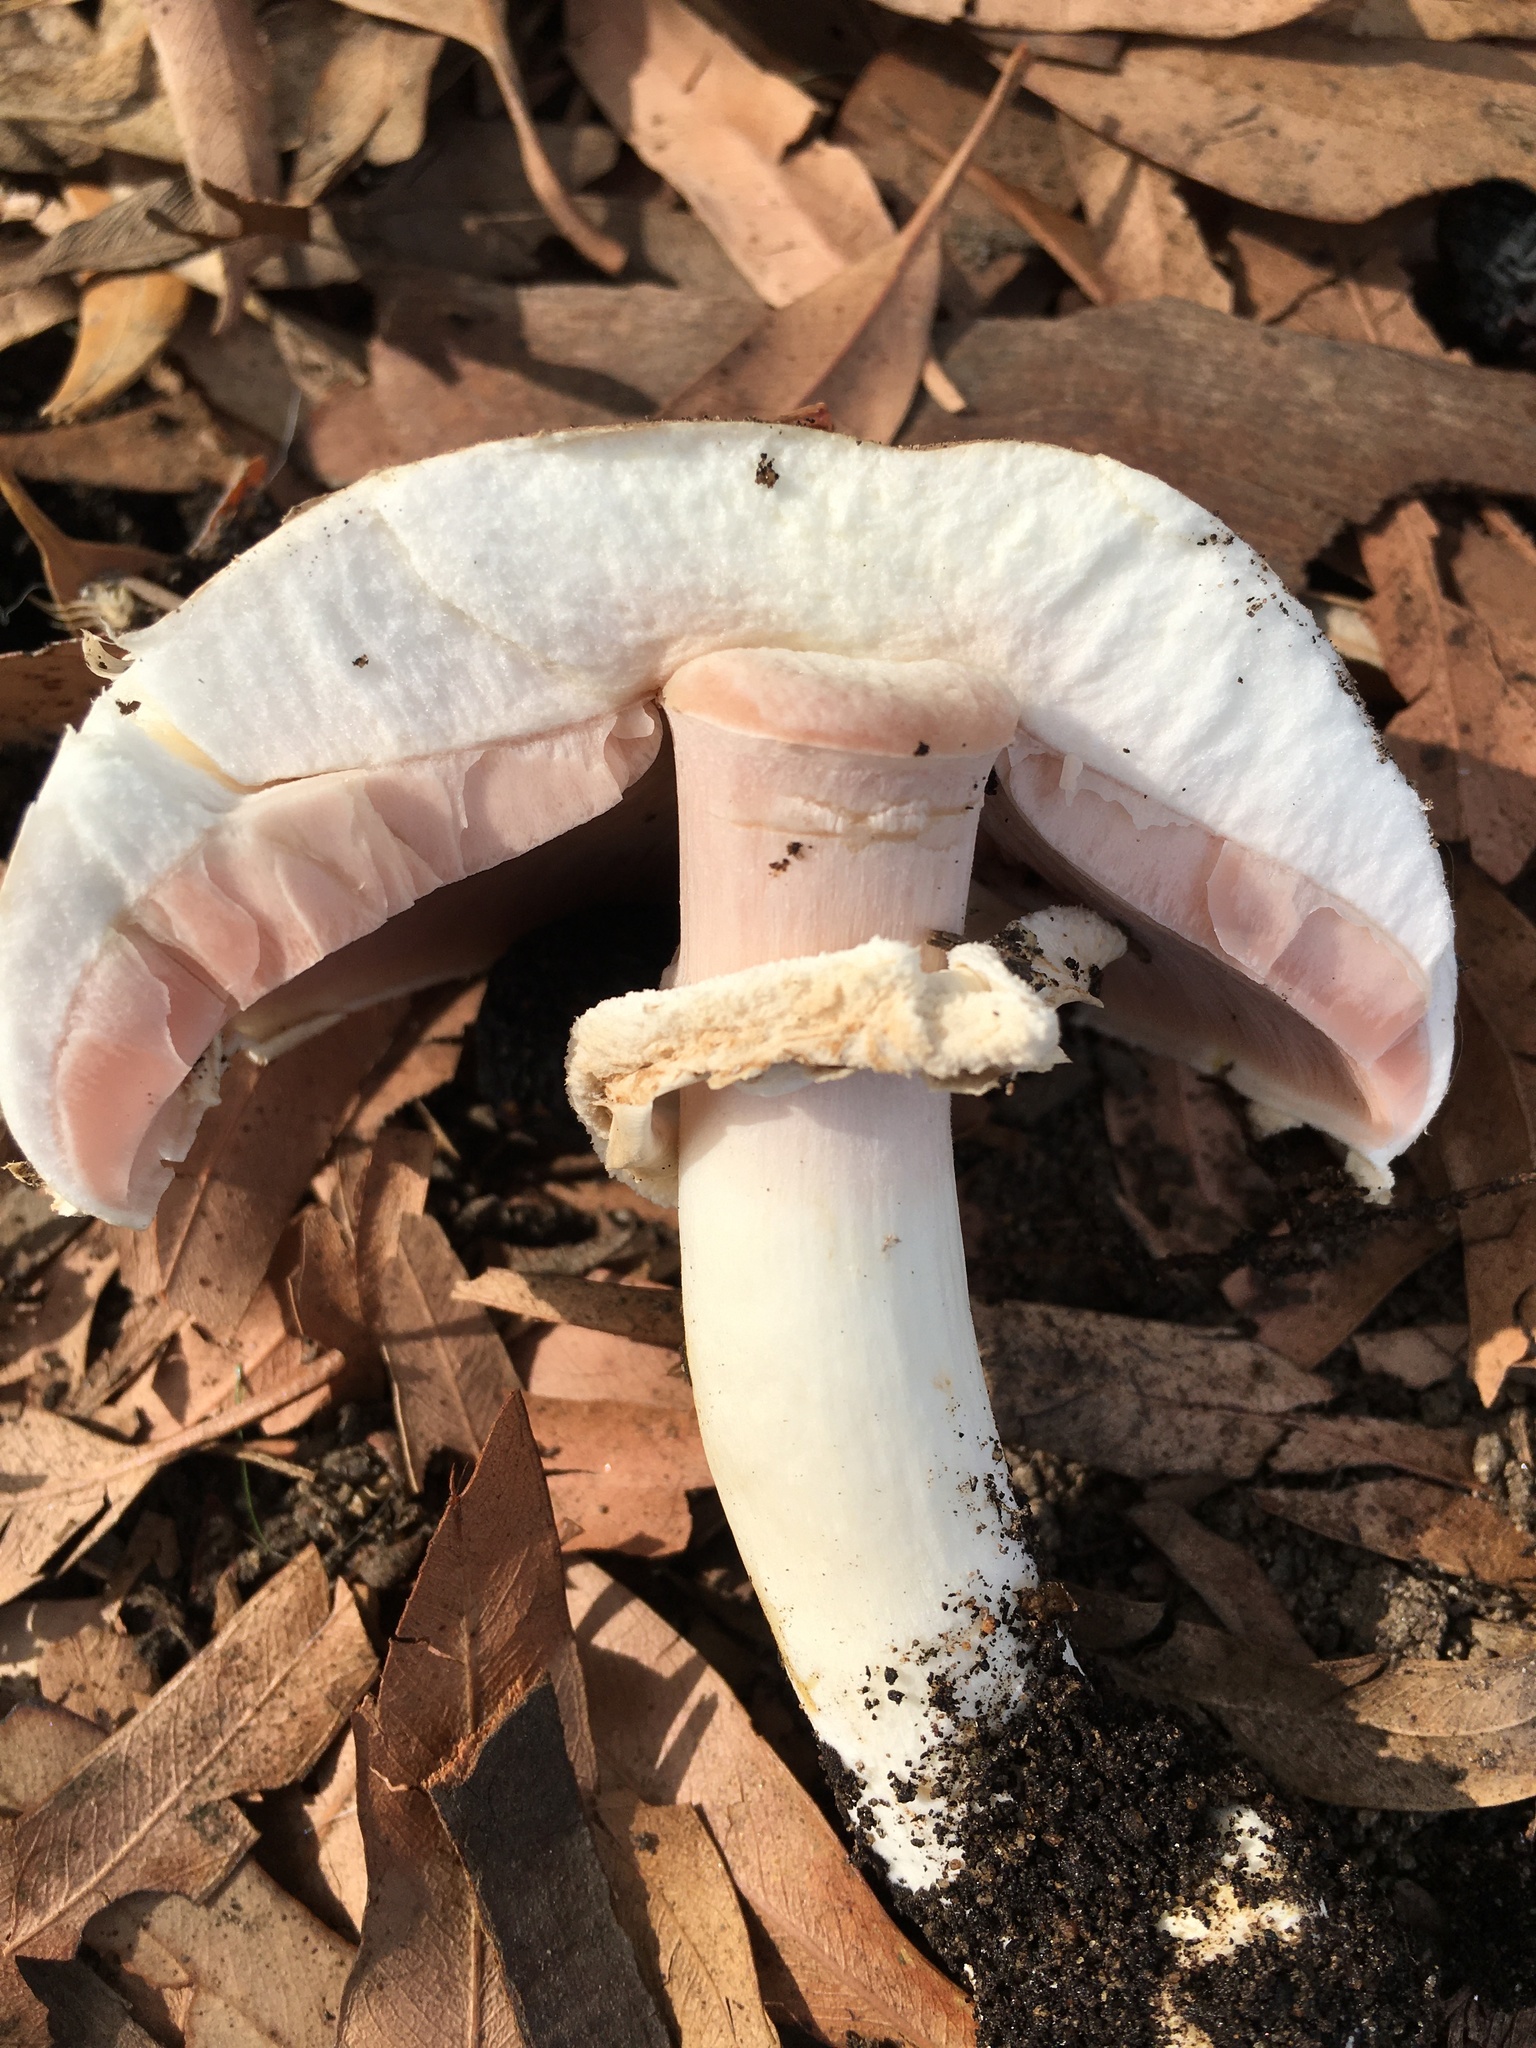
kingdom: Fungi
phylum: Basidiomycota
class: Agaricomycetes
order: Agaricales
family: Agaricaceae
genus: Agaricus
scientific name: Agaricus xanthodermus
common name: Yellow stainer
